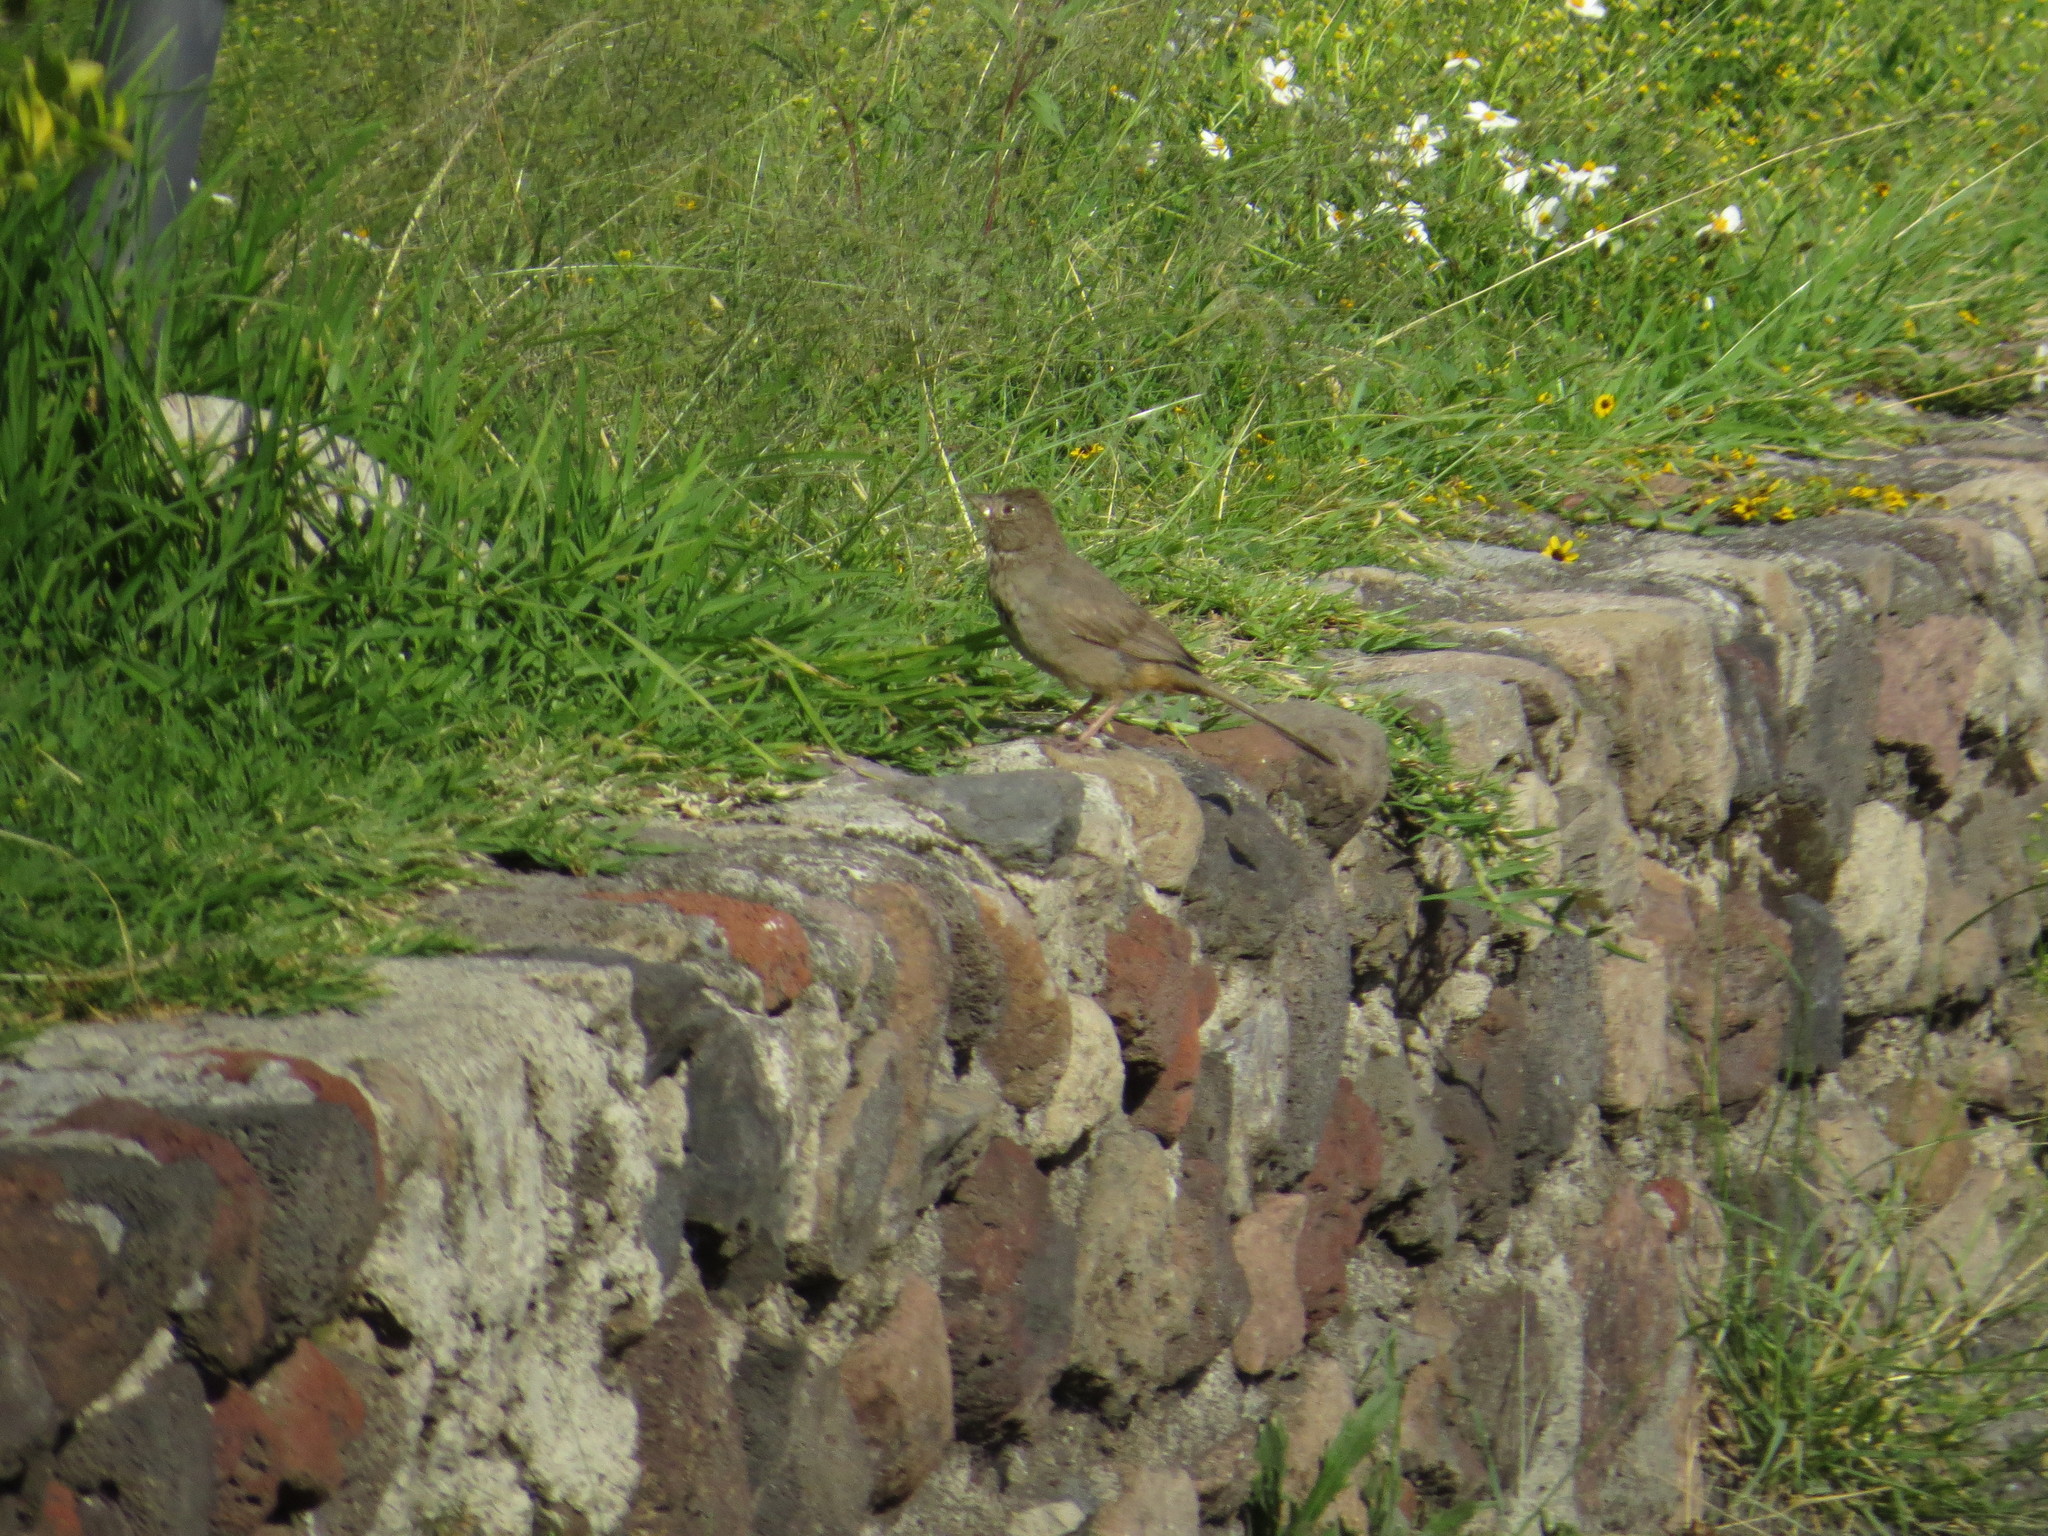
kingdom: Animalia
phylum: Chordata
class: Aves
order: Passeriformes
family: Passerellidae
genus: Melozone
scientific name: Melozone fusca
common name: Canyon towhee
